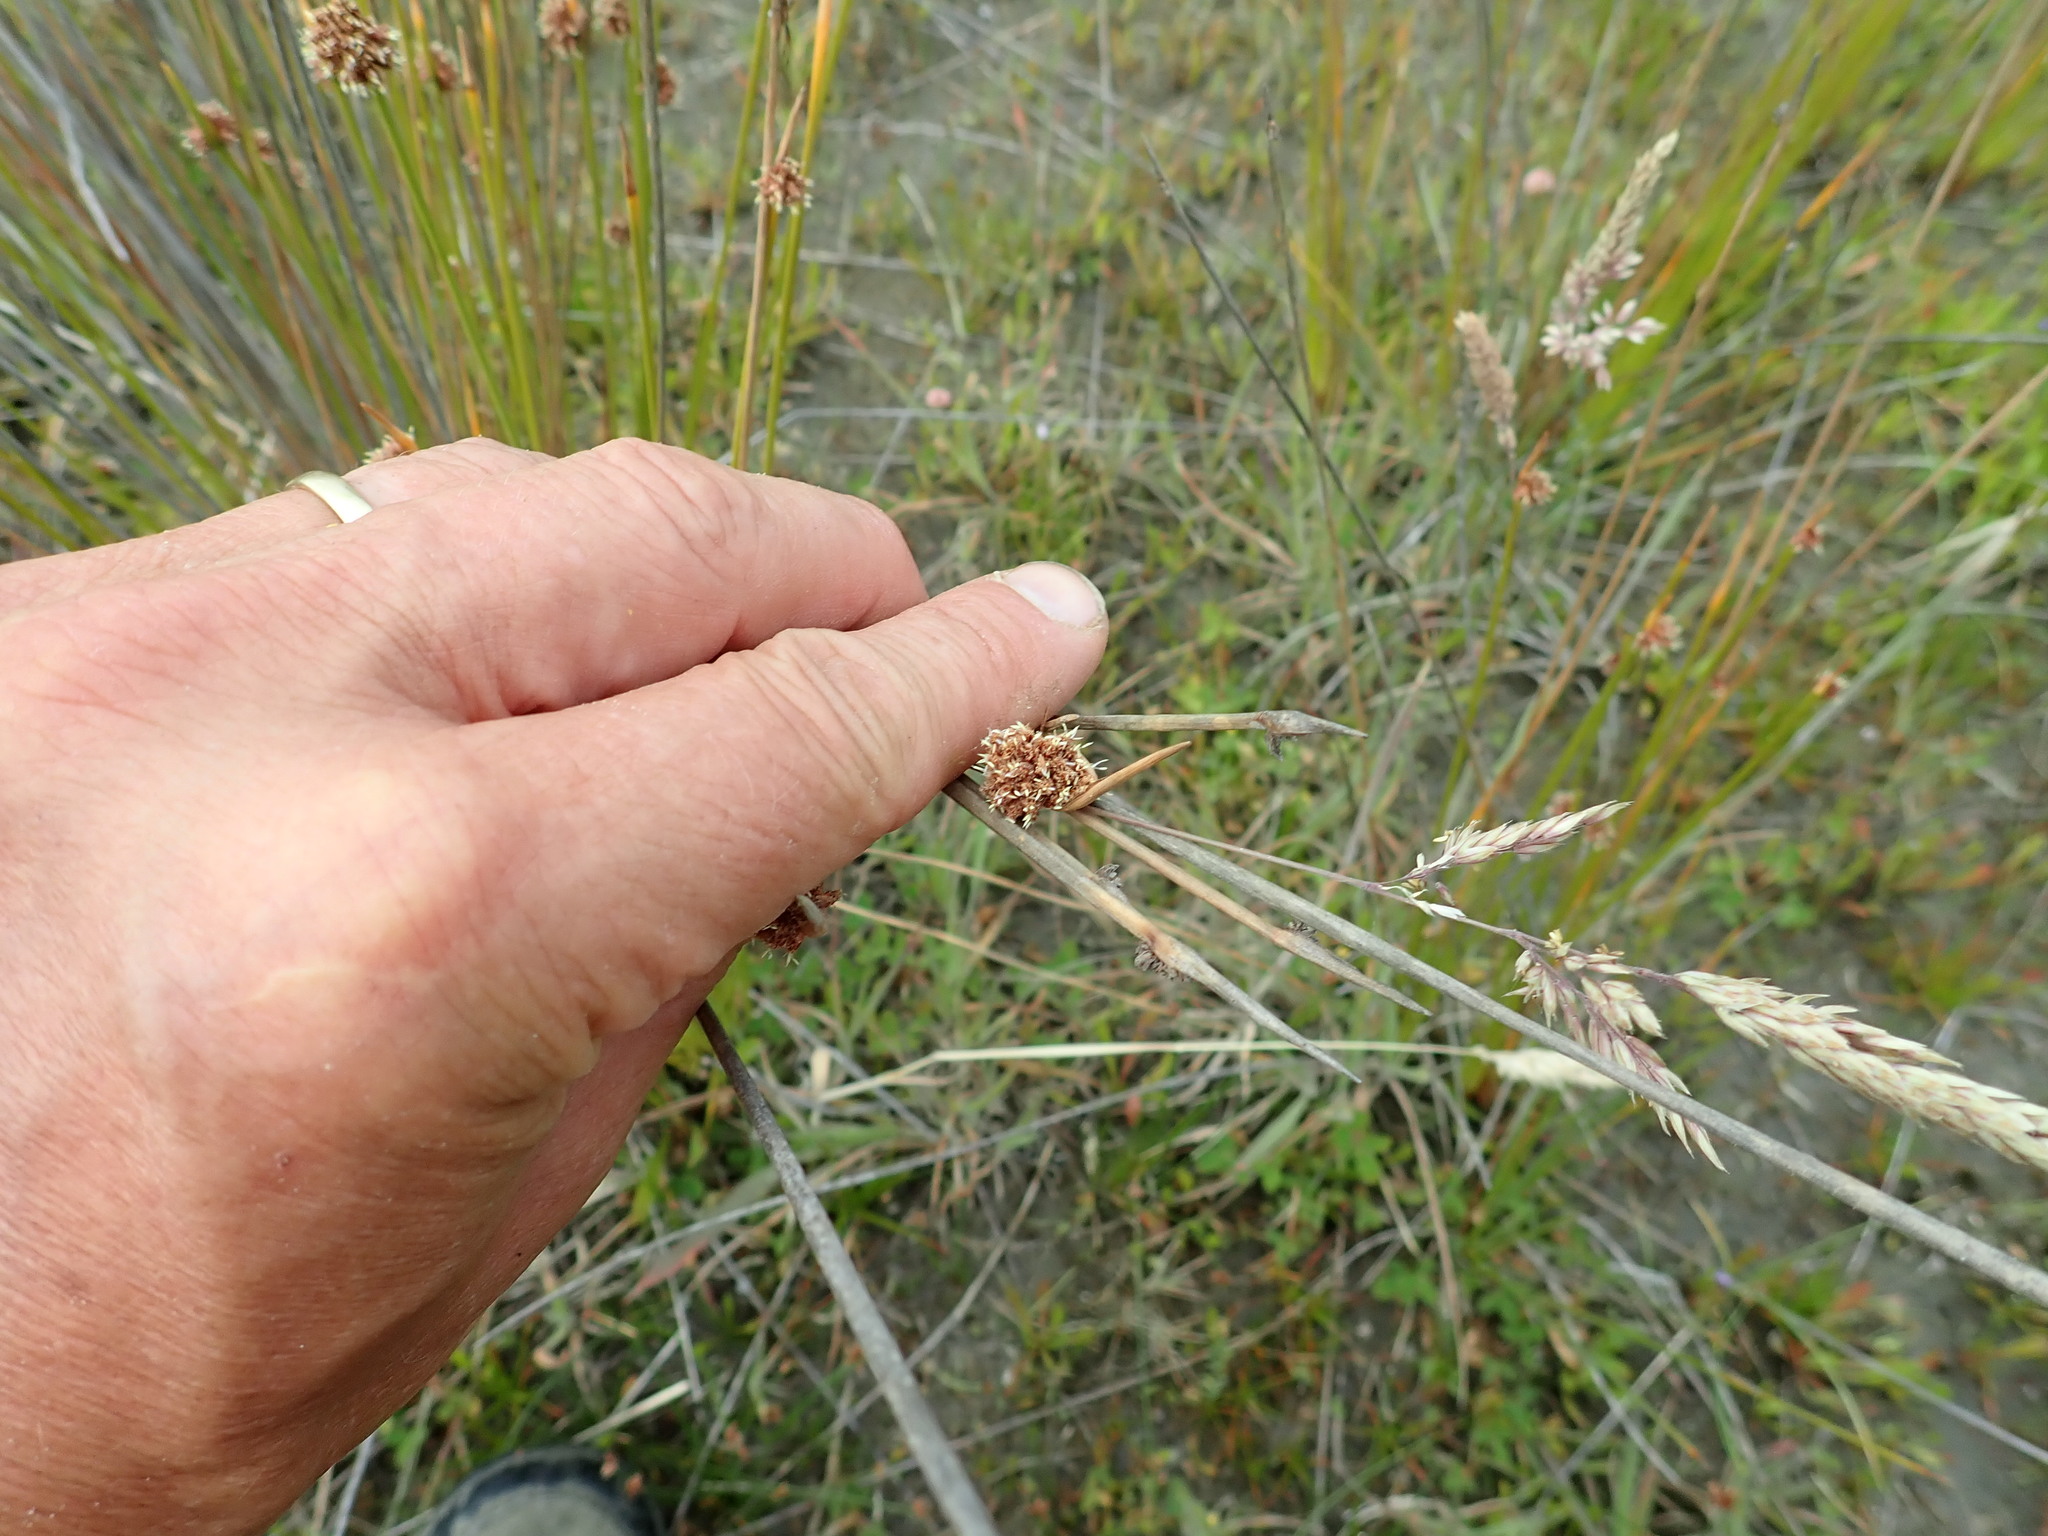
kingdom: Plantae
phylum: Tracheophyta
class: Liliopsida
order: Poales
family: Cyperaceae
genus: Ficinia
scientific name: Ficinia nodosa
